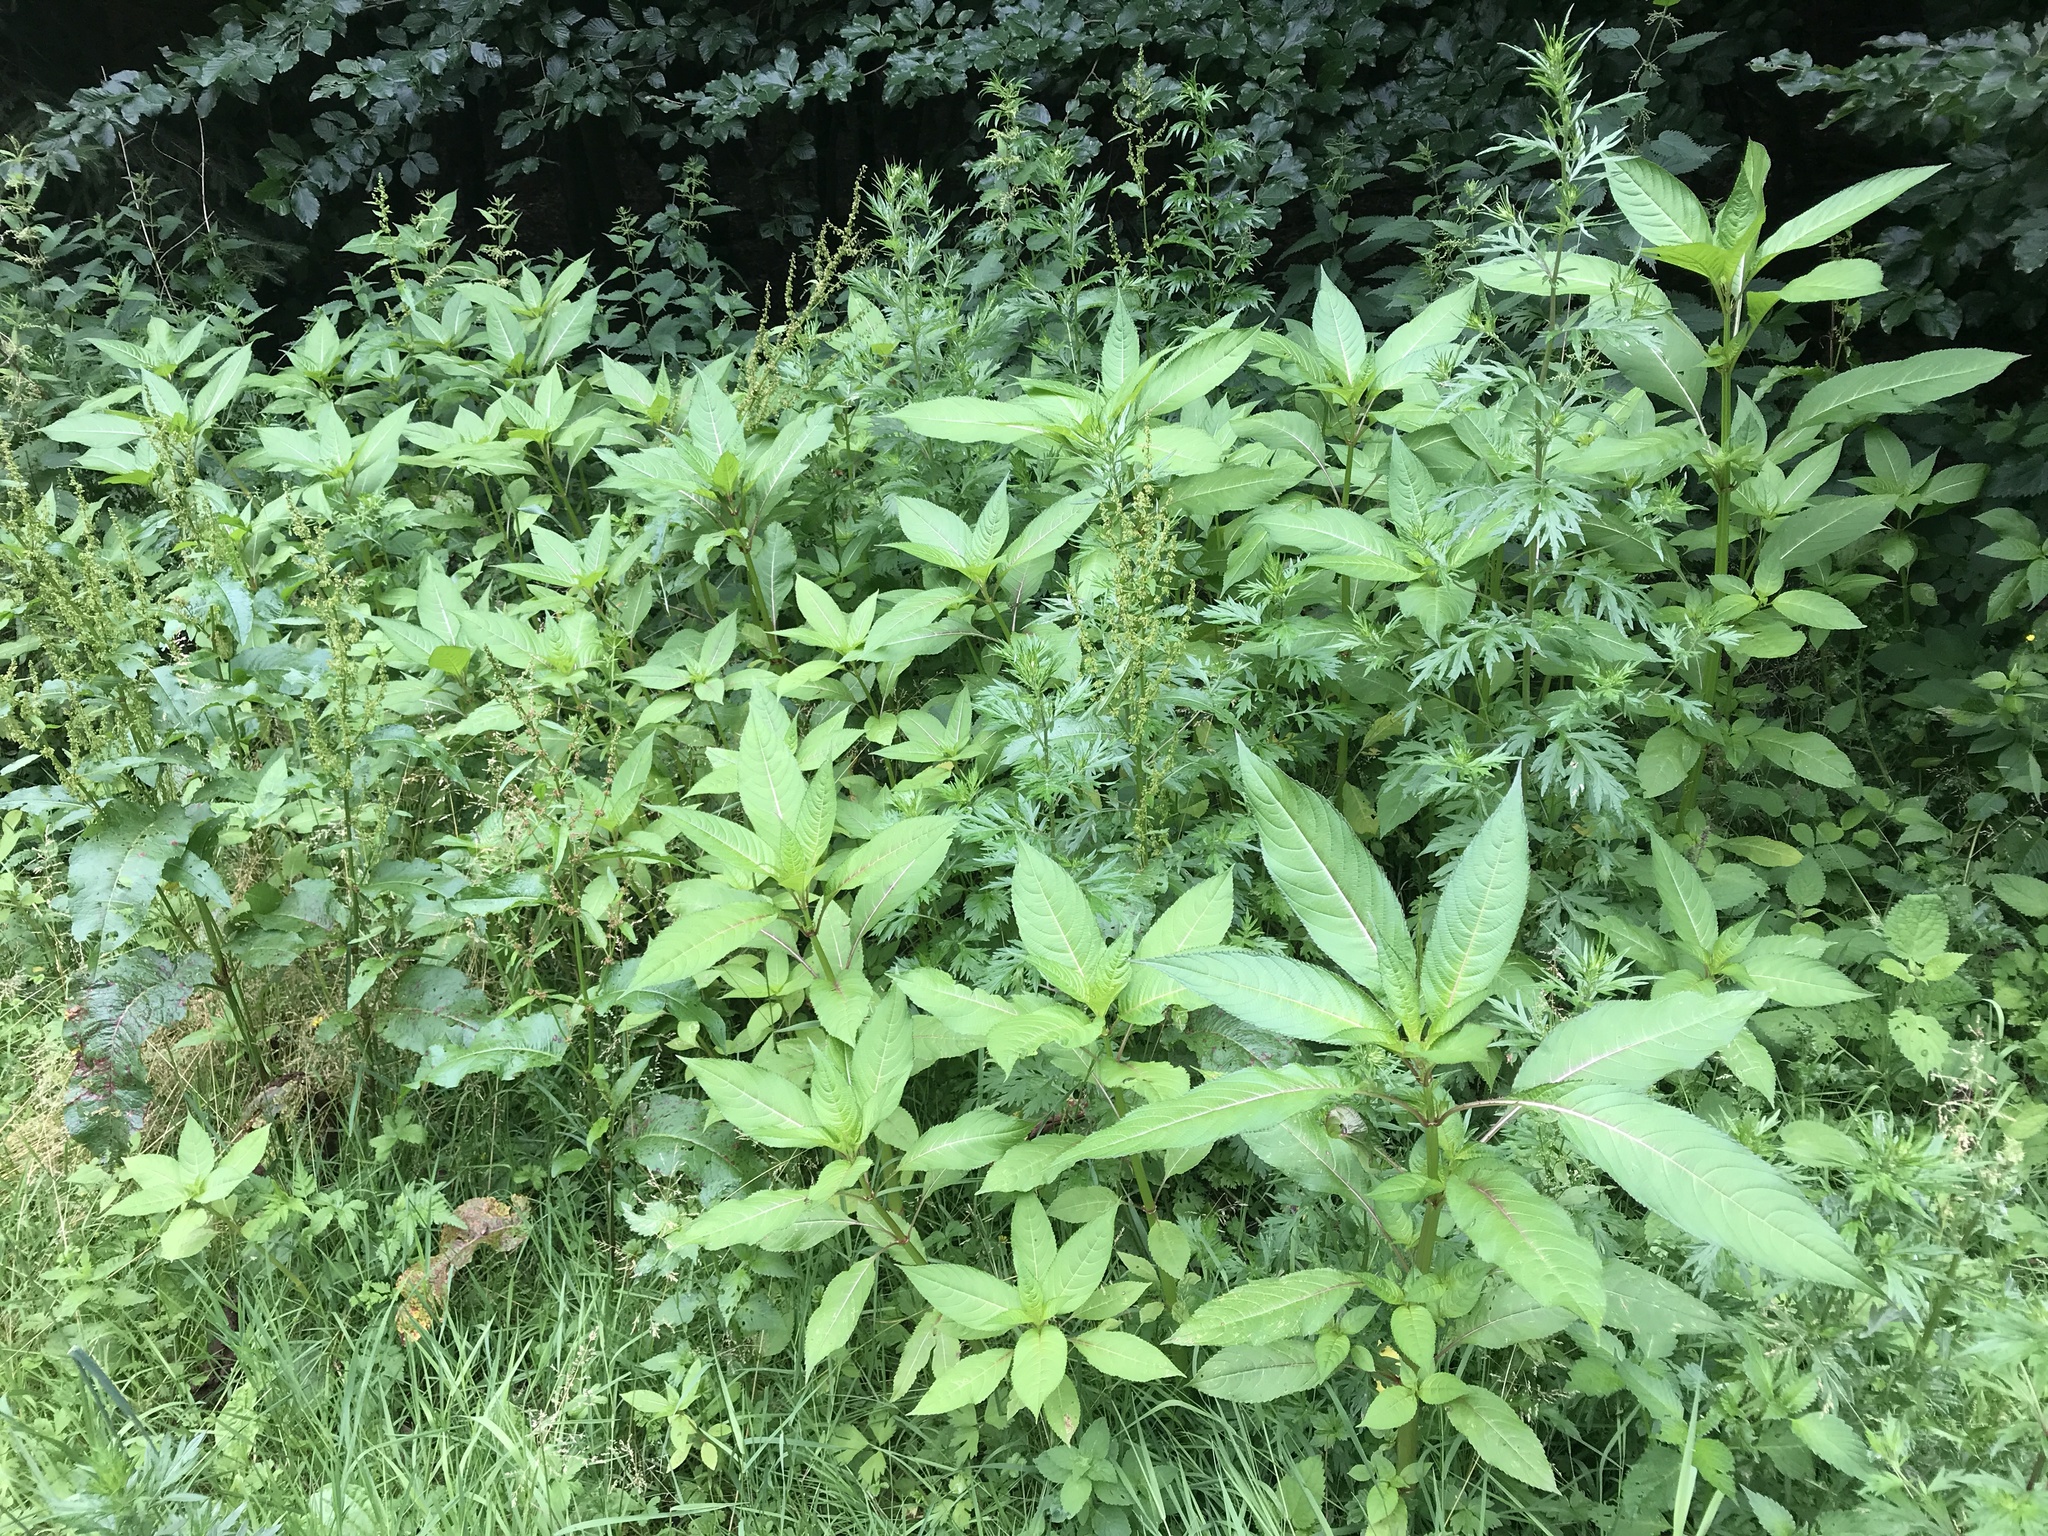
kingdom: Plantae
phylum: Tracheophyta
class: Magnoliopsida
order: Ericales
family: Balsaminaceae
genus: Impatiens
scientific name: Impatiens glandulifera
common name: Himalayan balsam
